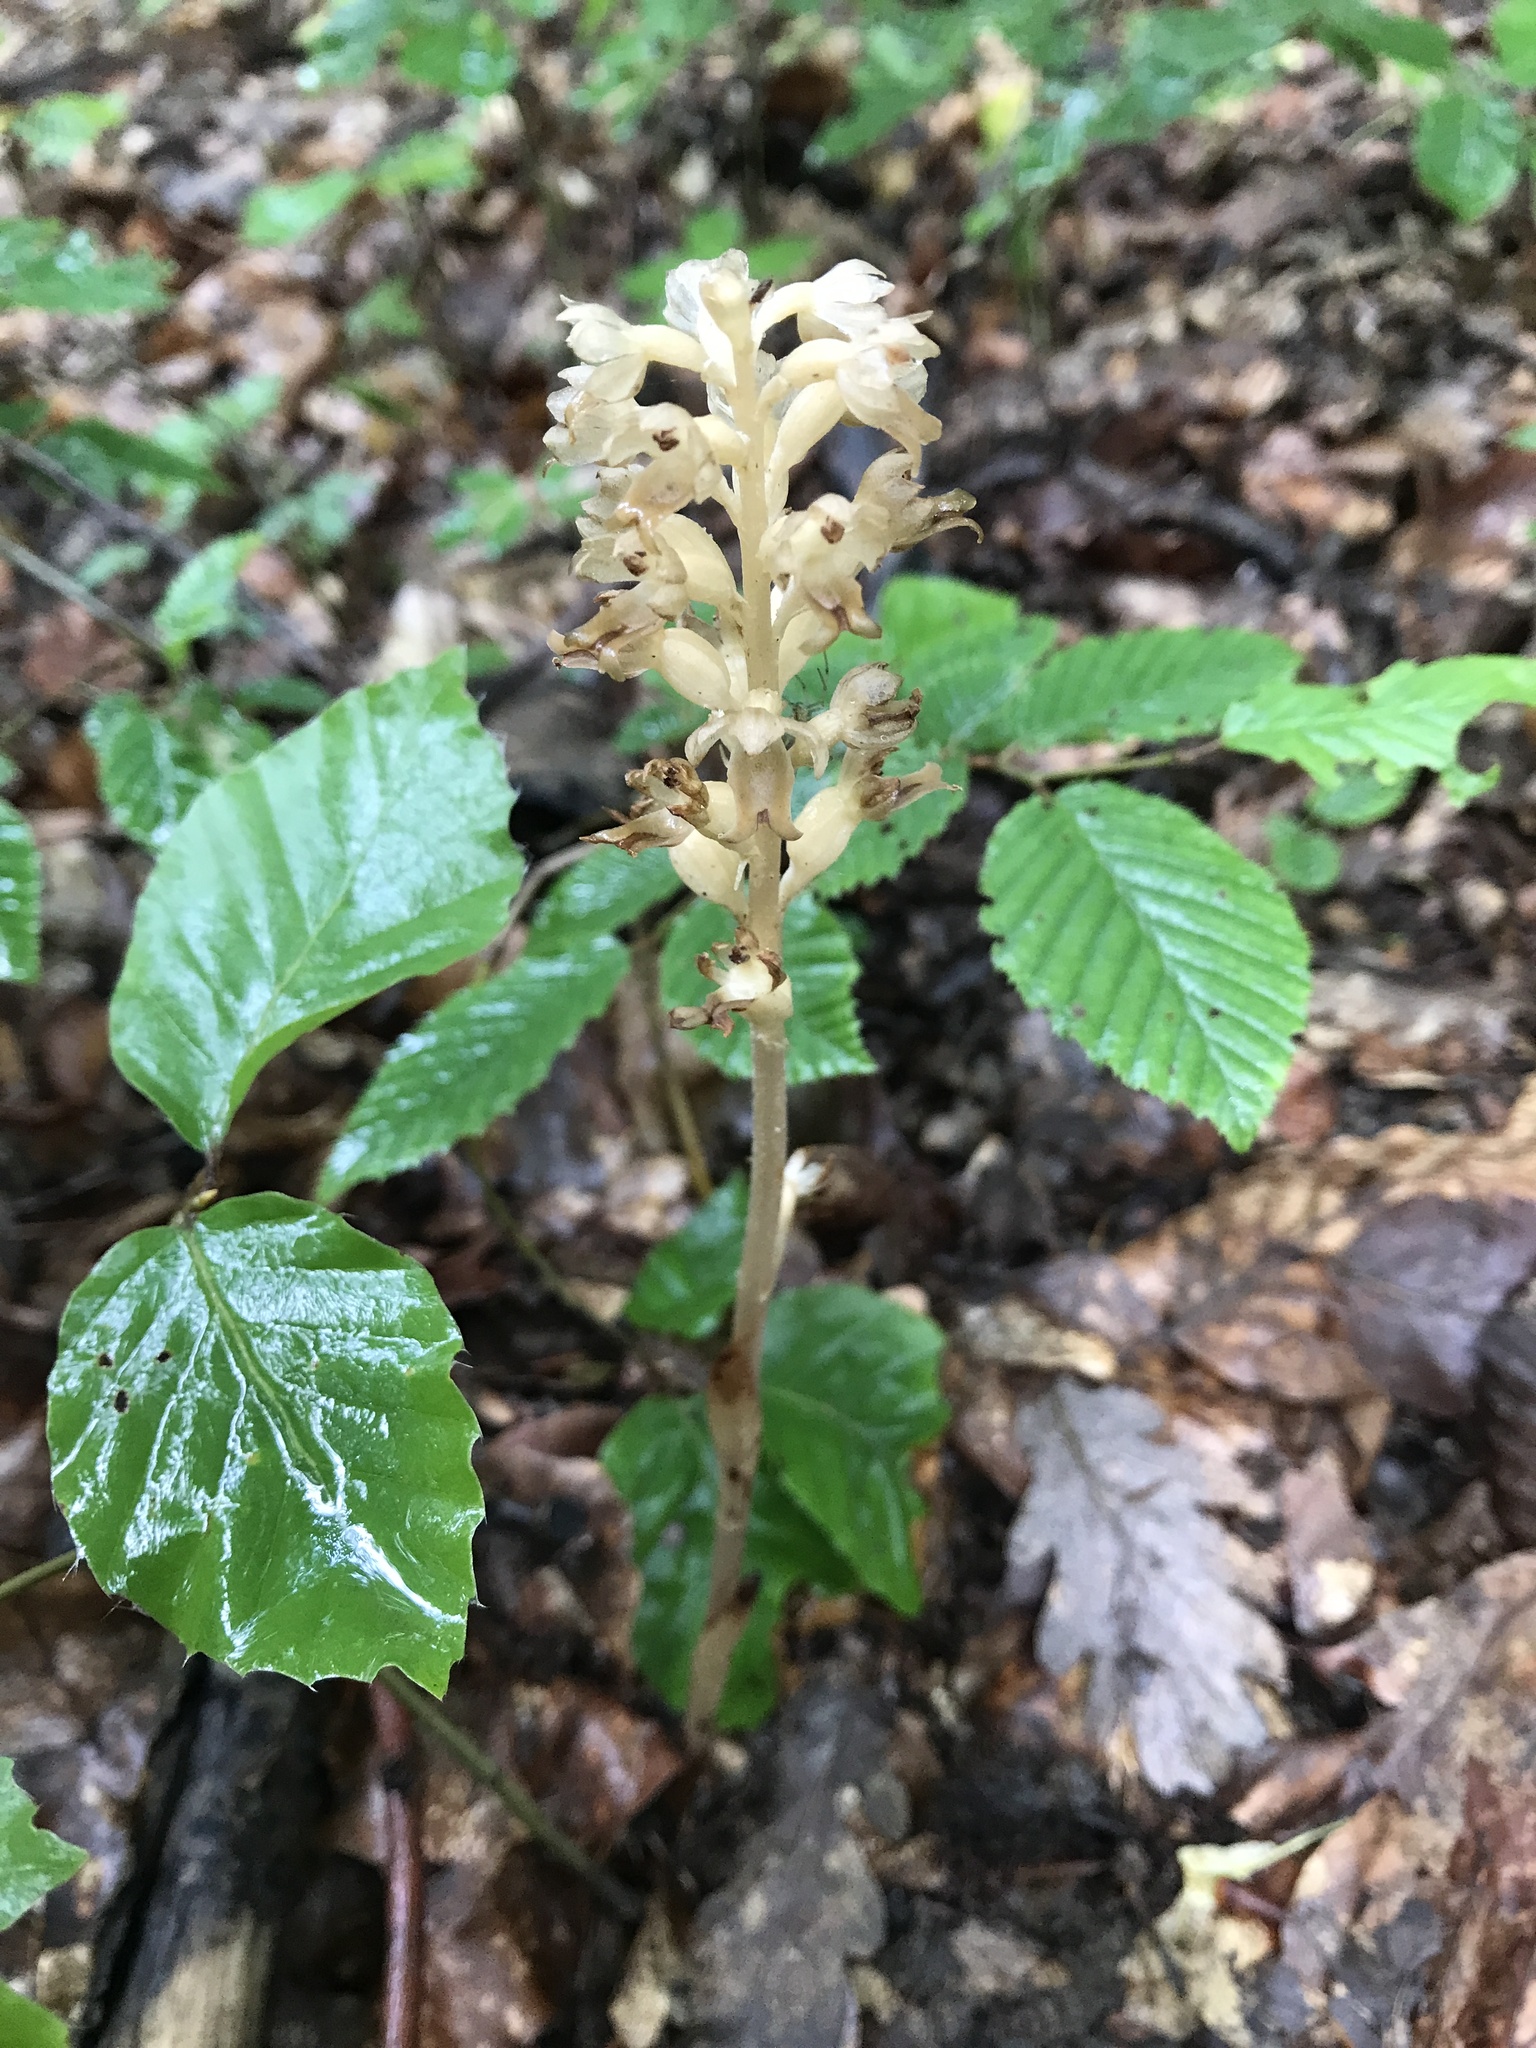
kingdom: Plantae
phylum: Tracheophyta
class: Liliopsida
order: Asparagales
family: Orchidaceae
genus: Neottia
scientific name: Neottia nidus-avis
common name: Bird's-nest orchid
